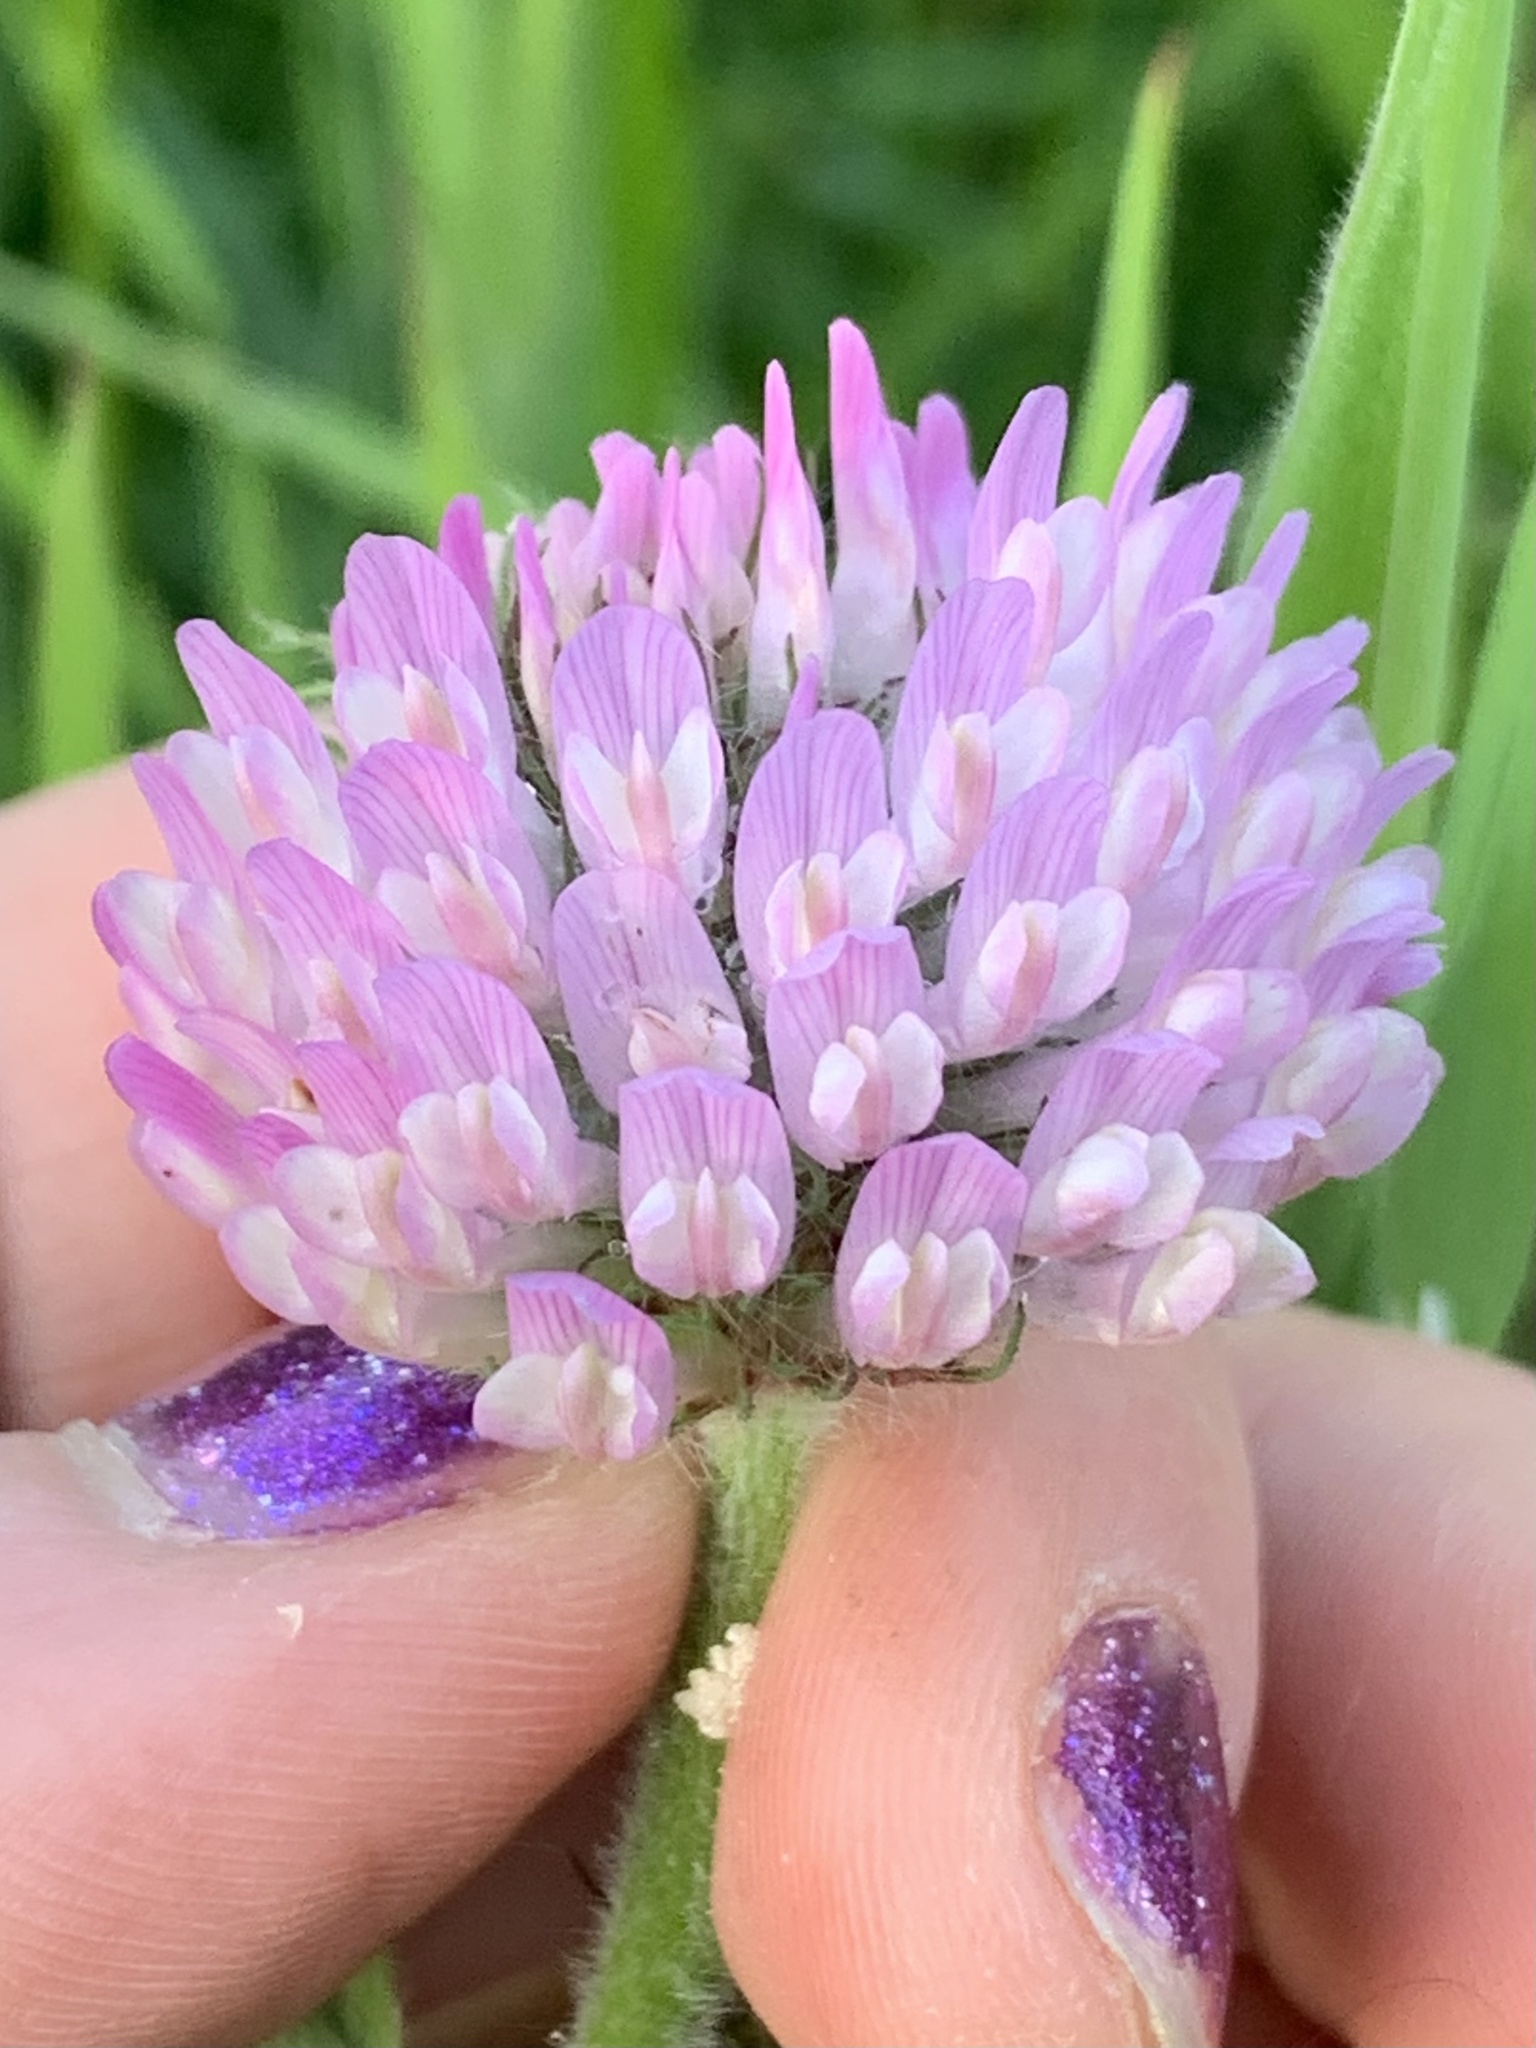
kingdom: Plantae
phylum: Tracheophyta
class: Magnoliopsida
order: Fabales
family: Fabaceae
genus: Trifolium
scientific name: Trifolium pratense
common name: Red clover
